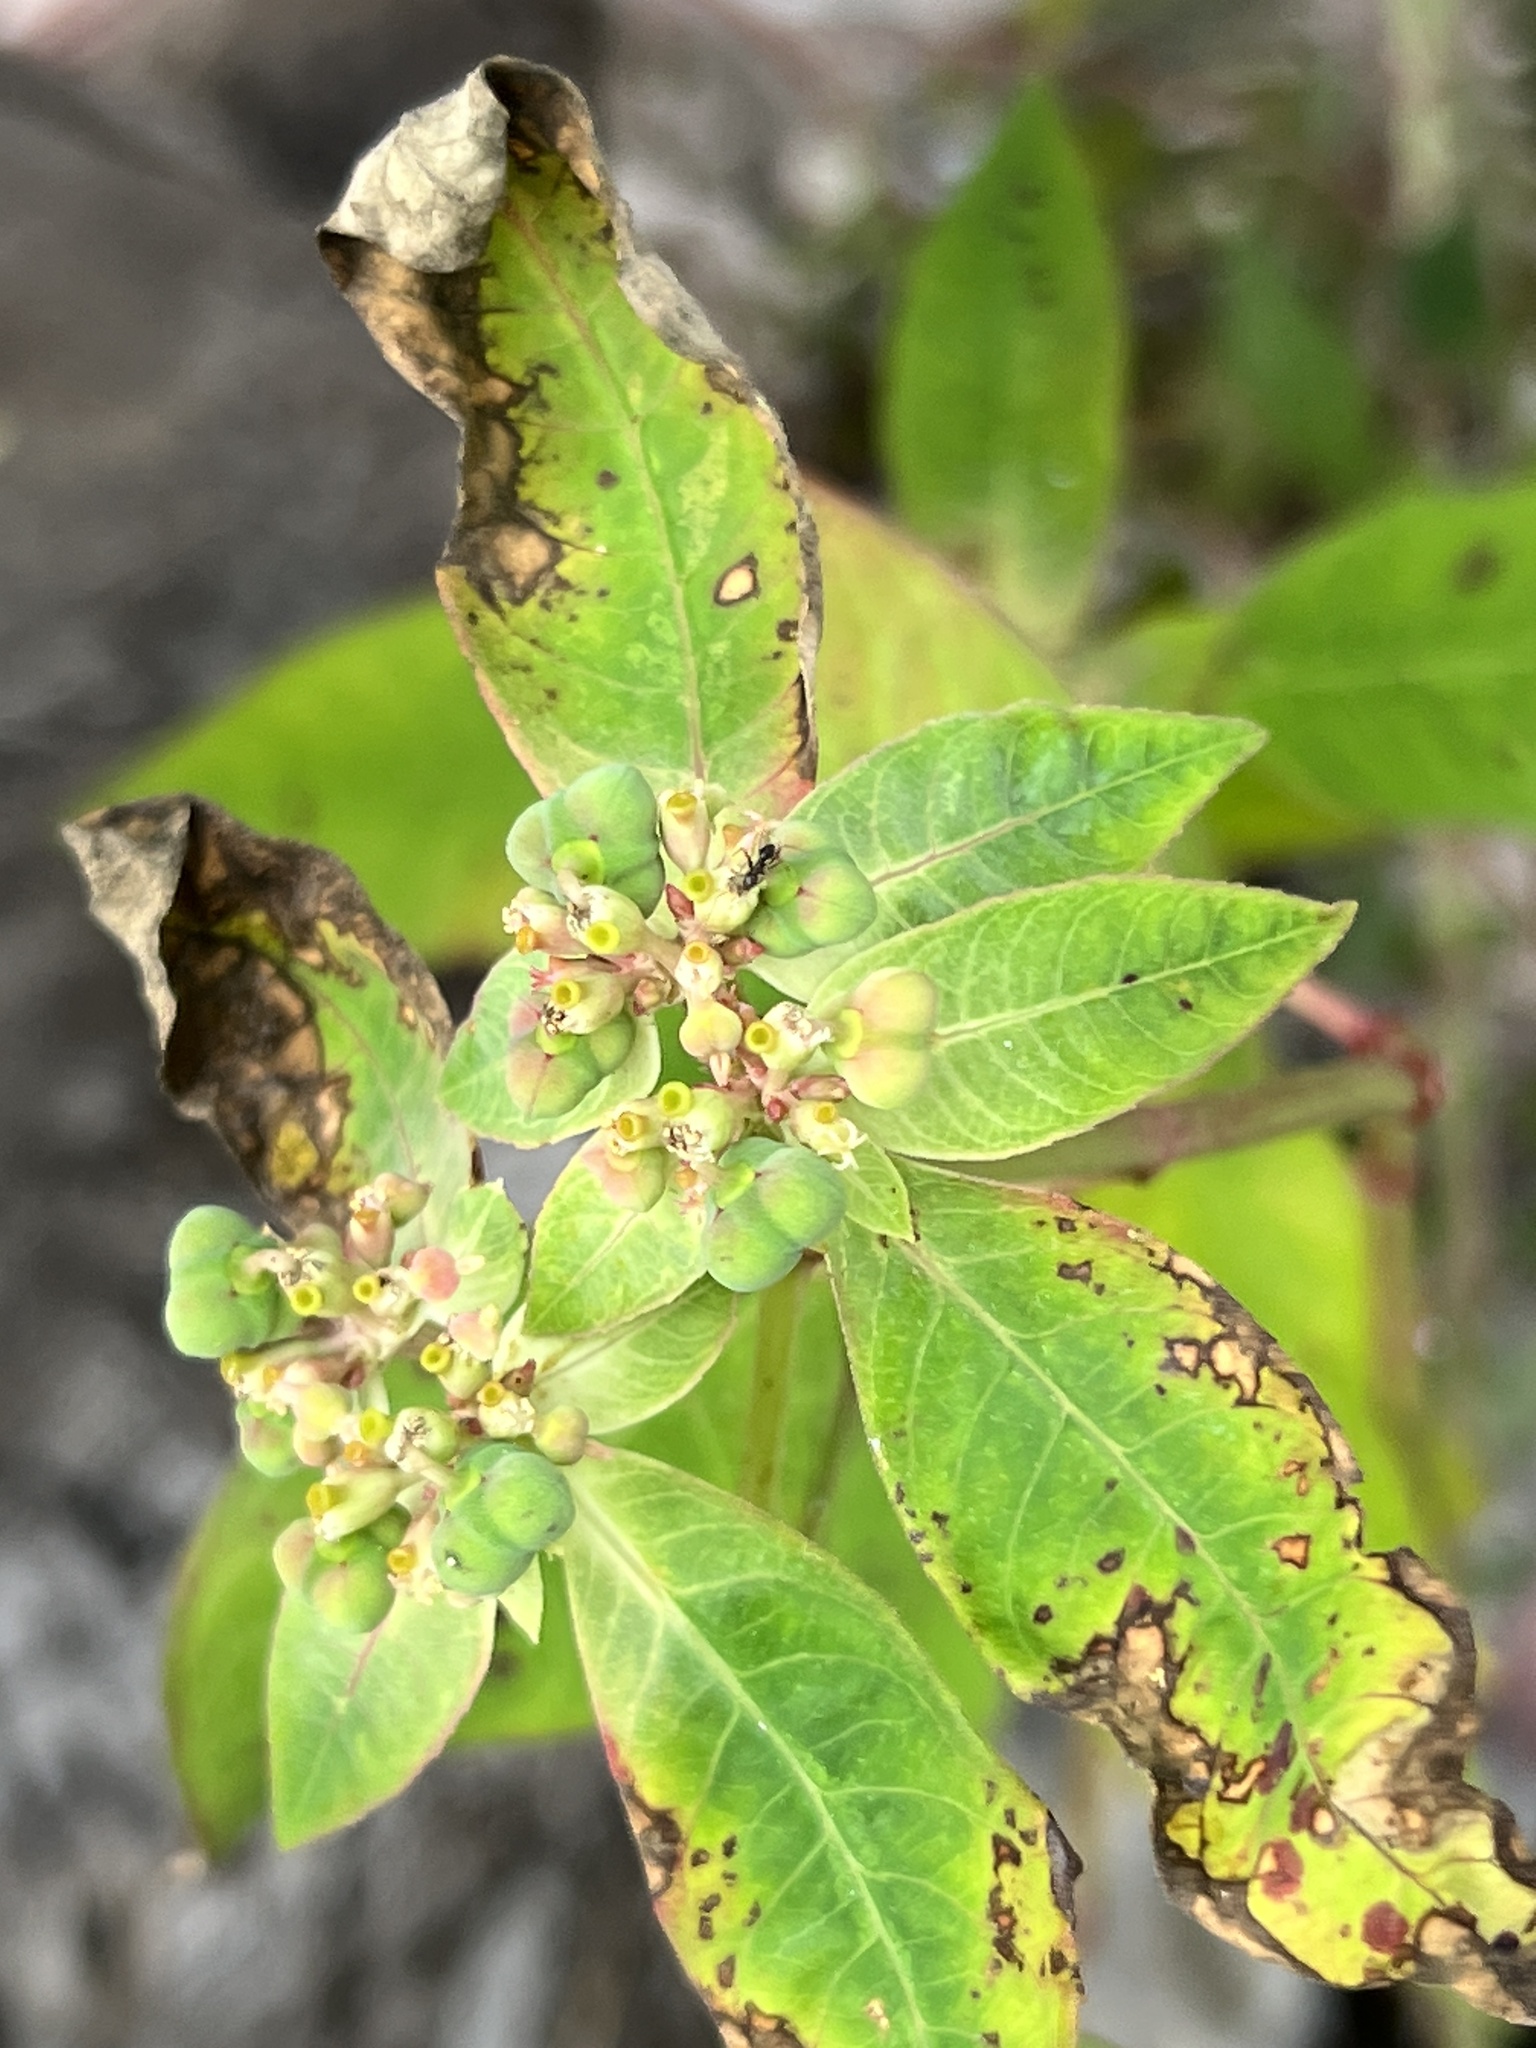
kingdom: Plantae
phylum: Tracheophyta
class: Magnoliopsida
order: Malpighiales
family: Euphorbiaceae
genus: Euphorbia
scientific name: Euphorbia heterophylla
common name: Mexican fireplant
